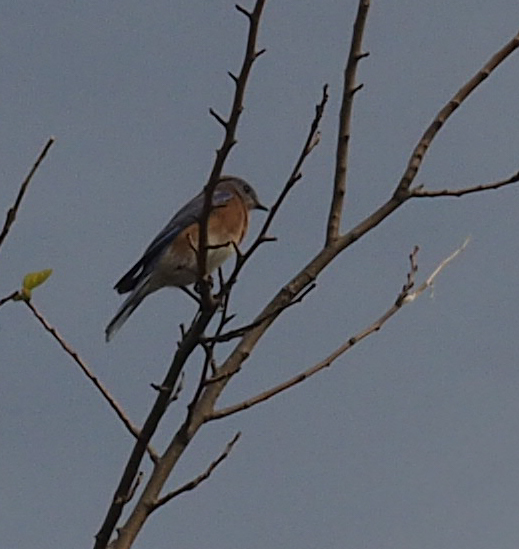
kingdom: Animalia
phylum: Chordata
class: Aves
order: Passeriformes
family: Turdidae
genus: Sialia
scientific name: Sialia sialis
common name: Eastern bluebird
